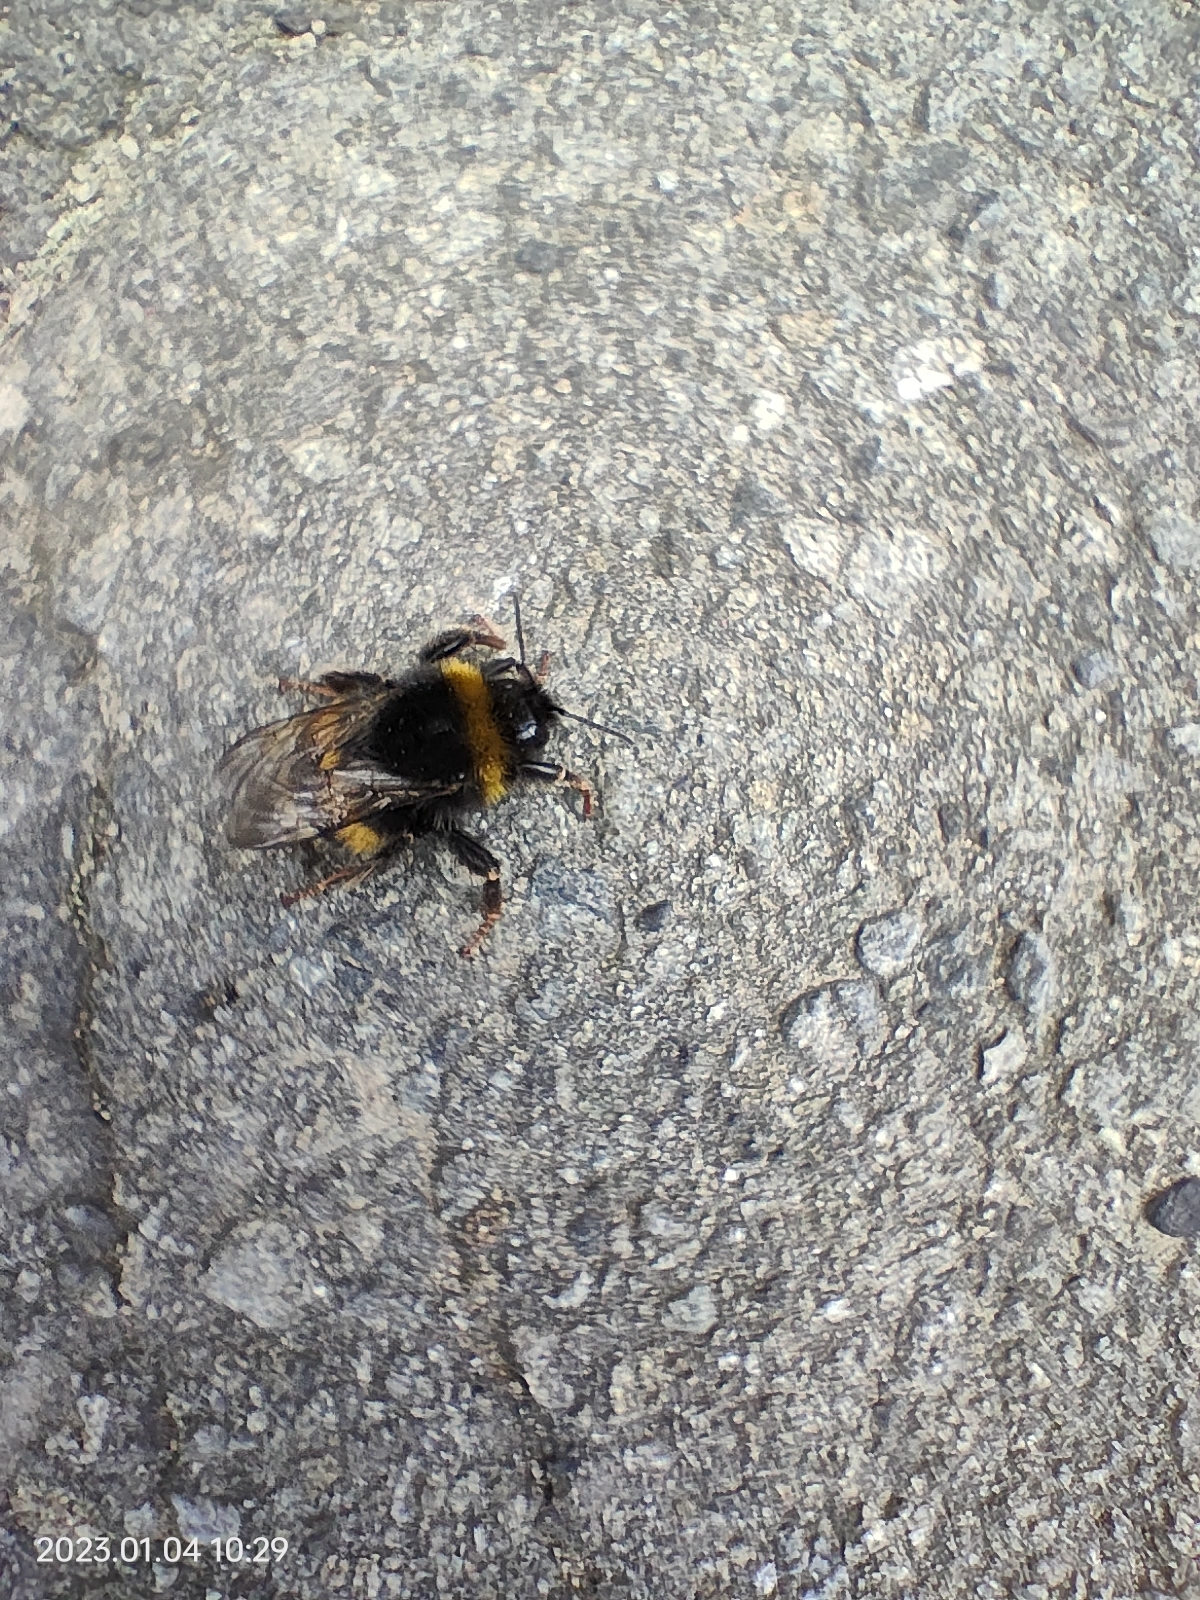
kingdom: Animalia
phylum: Arthropoda
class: Insecta
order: Hymenoptera
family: Apidae
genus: Bombus
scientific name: Bombus terrestris
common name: Buff-tailed bumblebee
